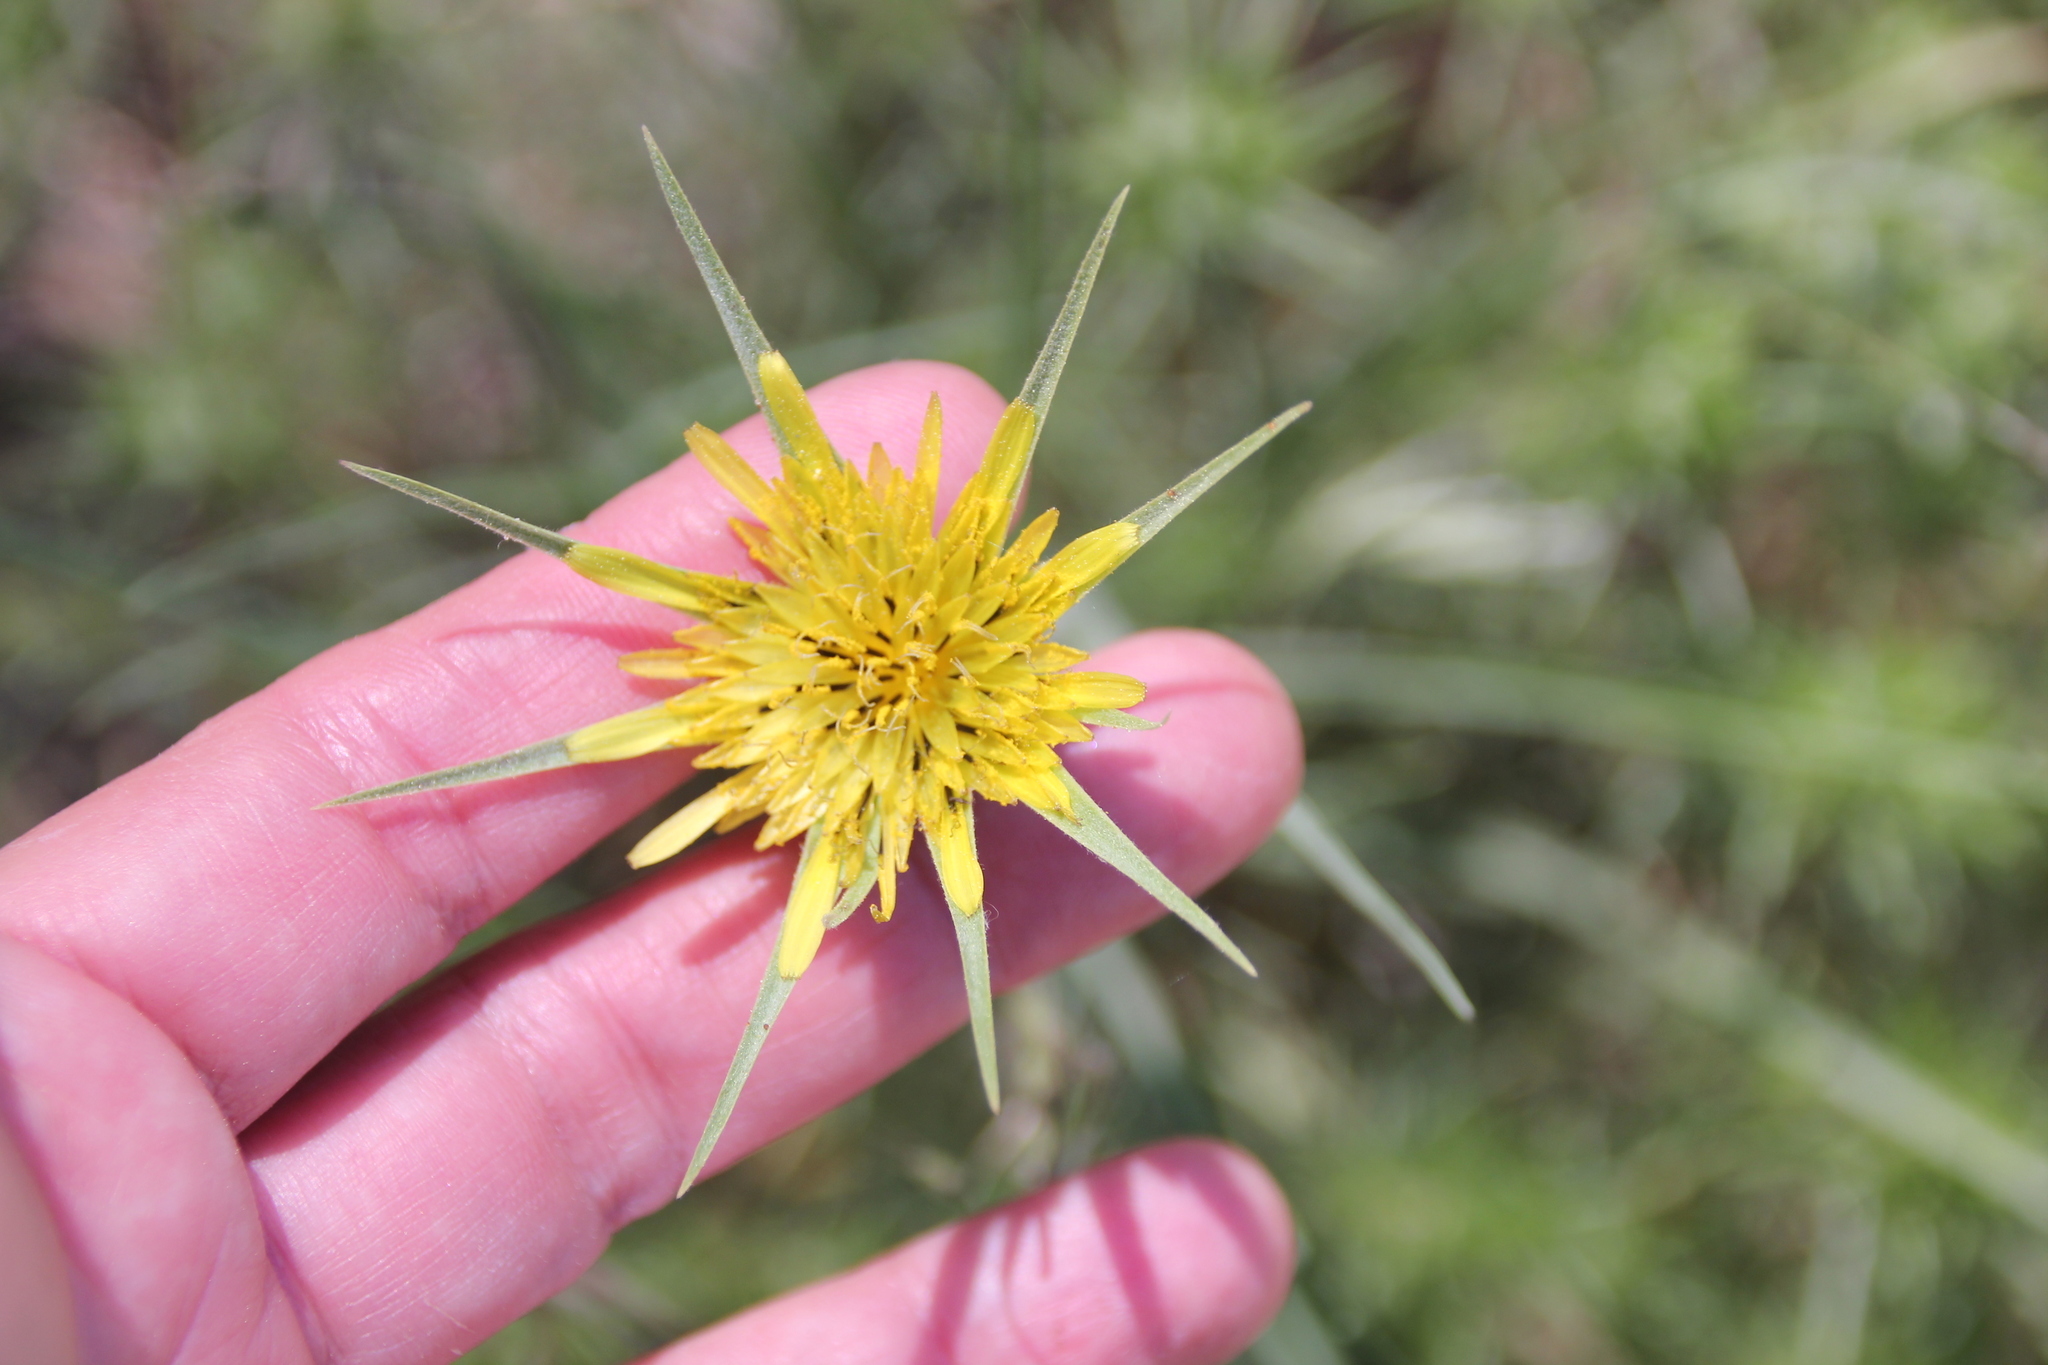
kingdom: Plantae
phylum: Tracheophyta
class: Magnoliopsida
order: Asterales
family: Asteraceae
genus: Tragopogon
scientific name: Tragopogon dubius
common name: Yellow salsify
